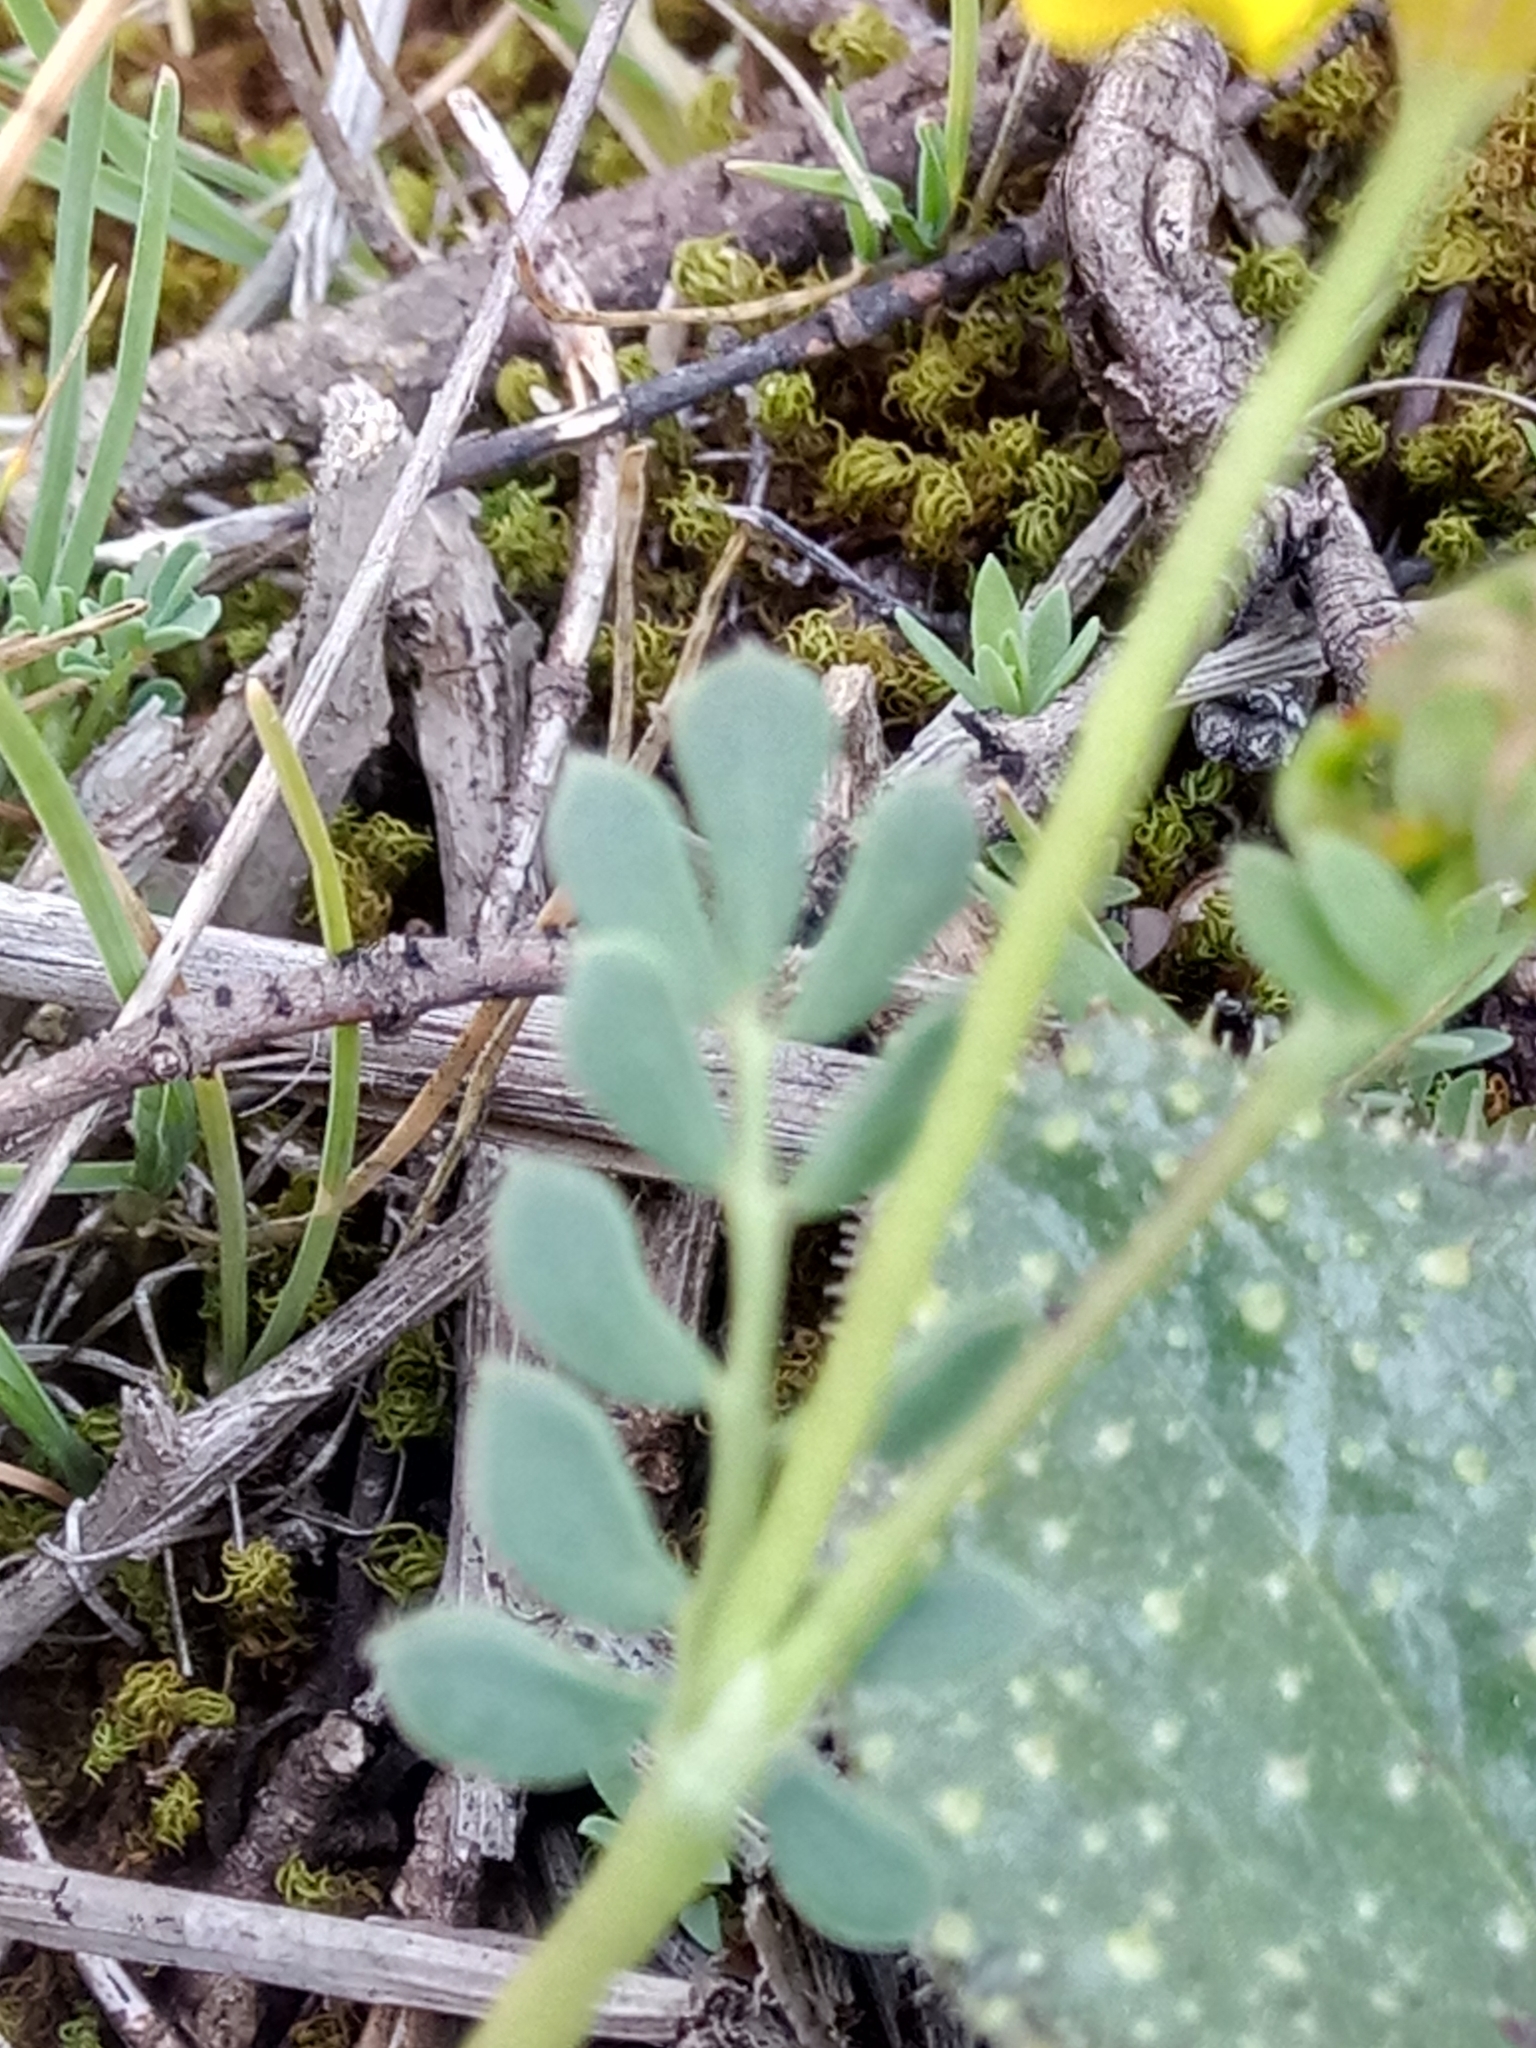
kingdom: Plantae
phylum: Tracheophyta
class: Magnoliopsida
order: Fabales
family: Fabaceae
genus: Coronilla
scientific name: Coronilla minima
